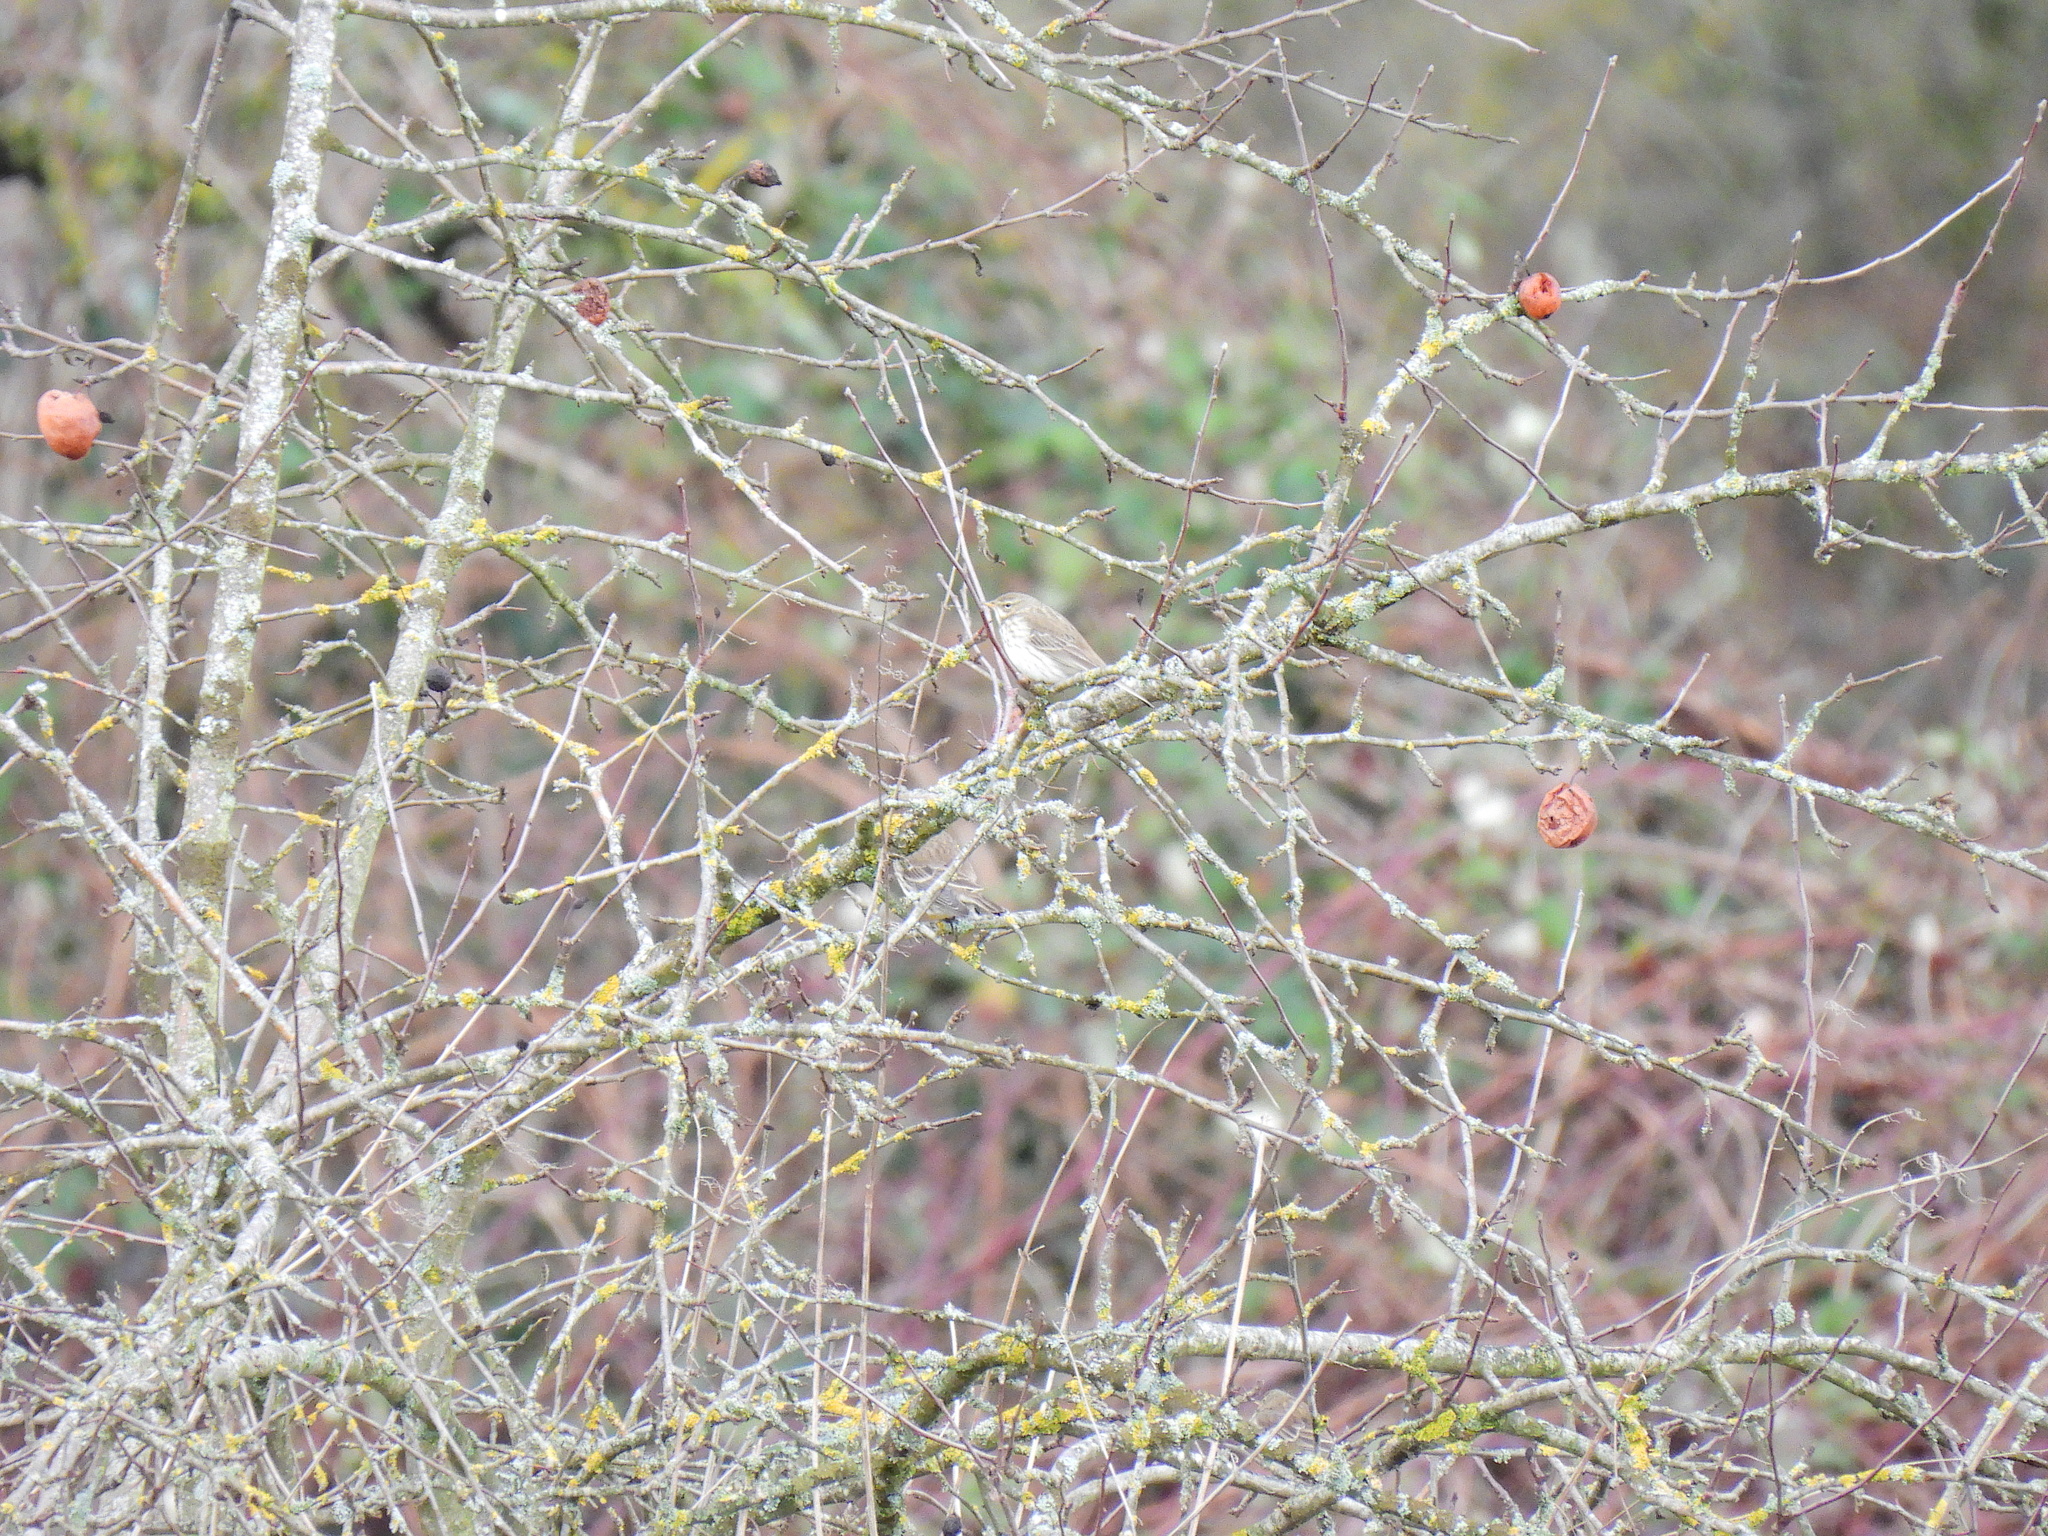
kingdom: Animalia
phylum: Chordata
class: Aves
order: Passeriformes
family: Motacillidae
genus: Anthus
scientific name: Anthus spinoletta
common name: Water pipit
